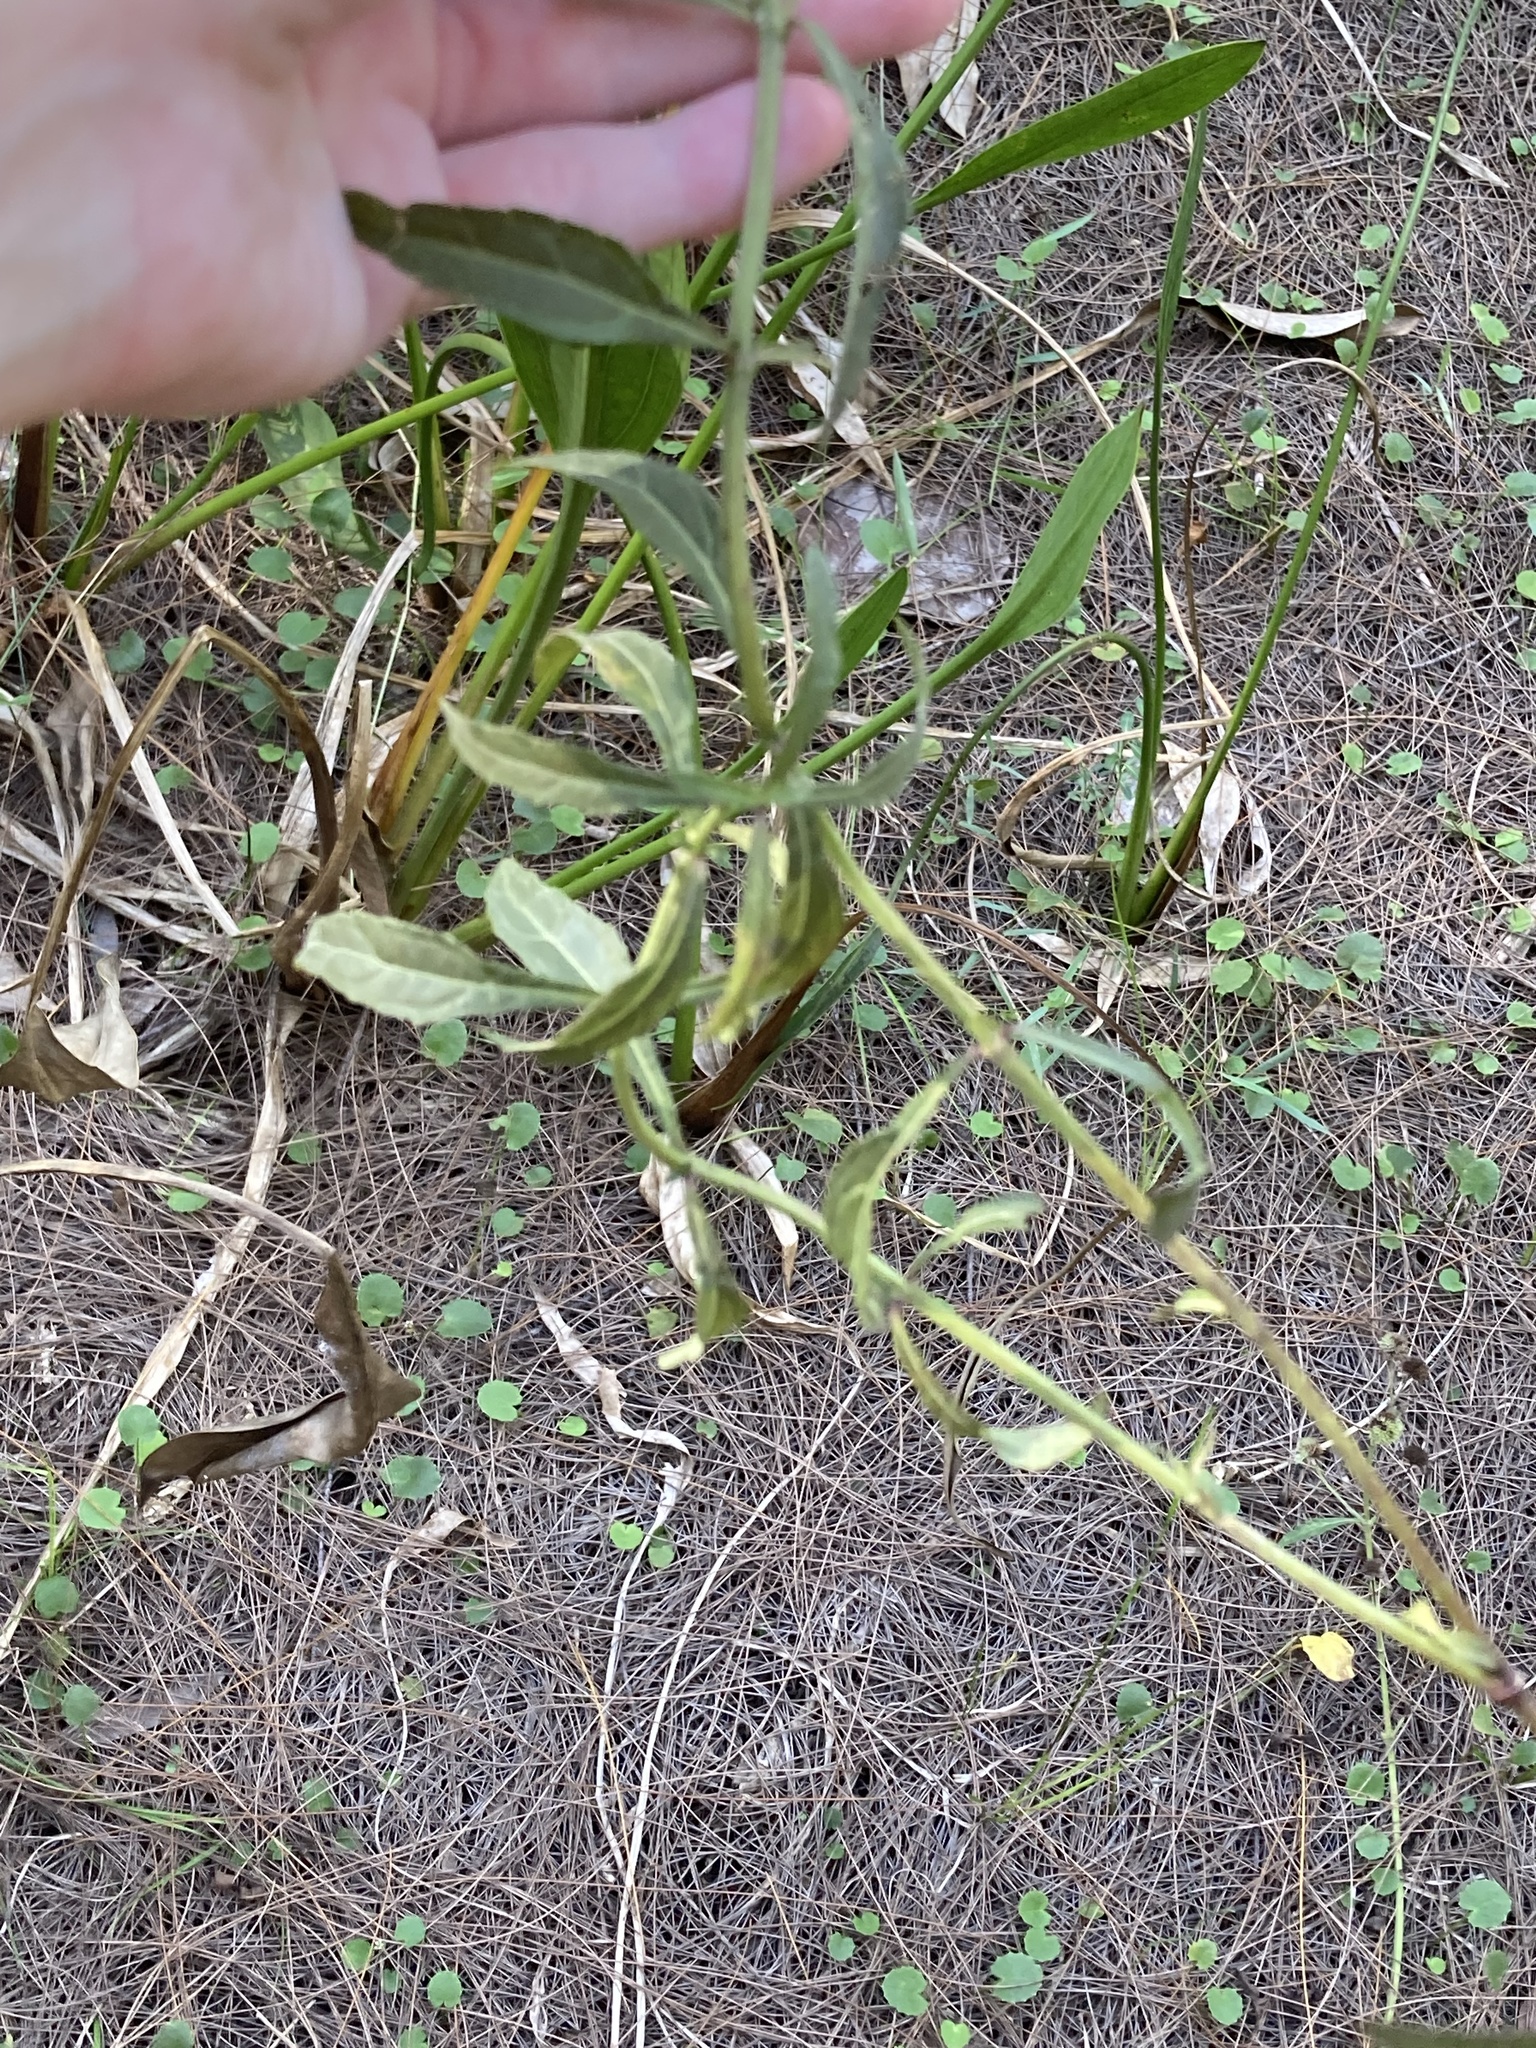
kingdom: Plantae
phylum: Tracheophyta
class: Magnoliopsida
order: Lamiales
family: Lamiaceae
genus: Hyptis
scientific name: Hyptis alata
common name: Cluster bush-mint
